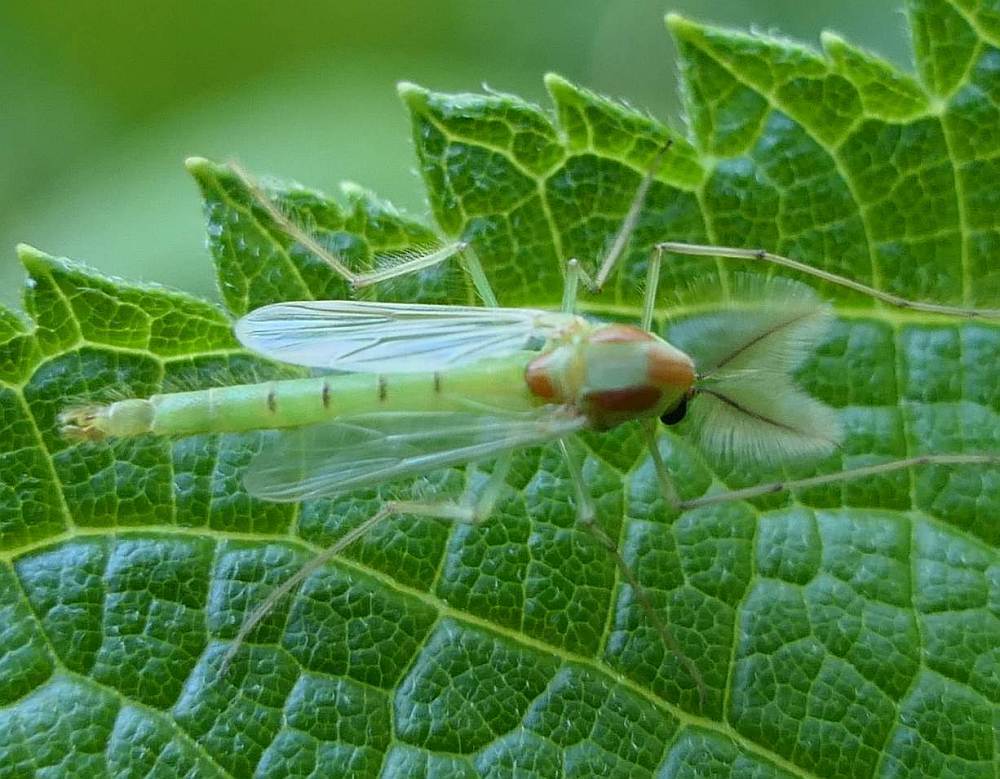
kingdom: Animalia
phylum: Arthropoda
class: Insecta
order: Diptera
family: Chironomidae
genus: Axarus
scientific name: Axarus
